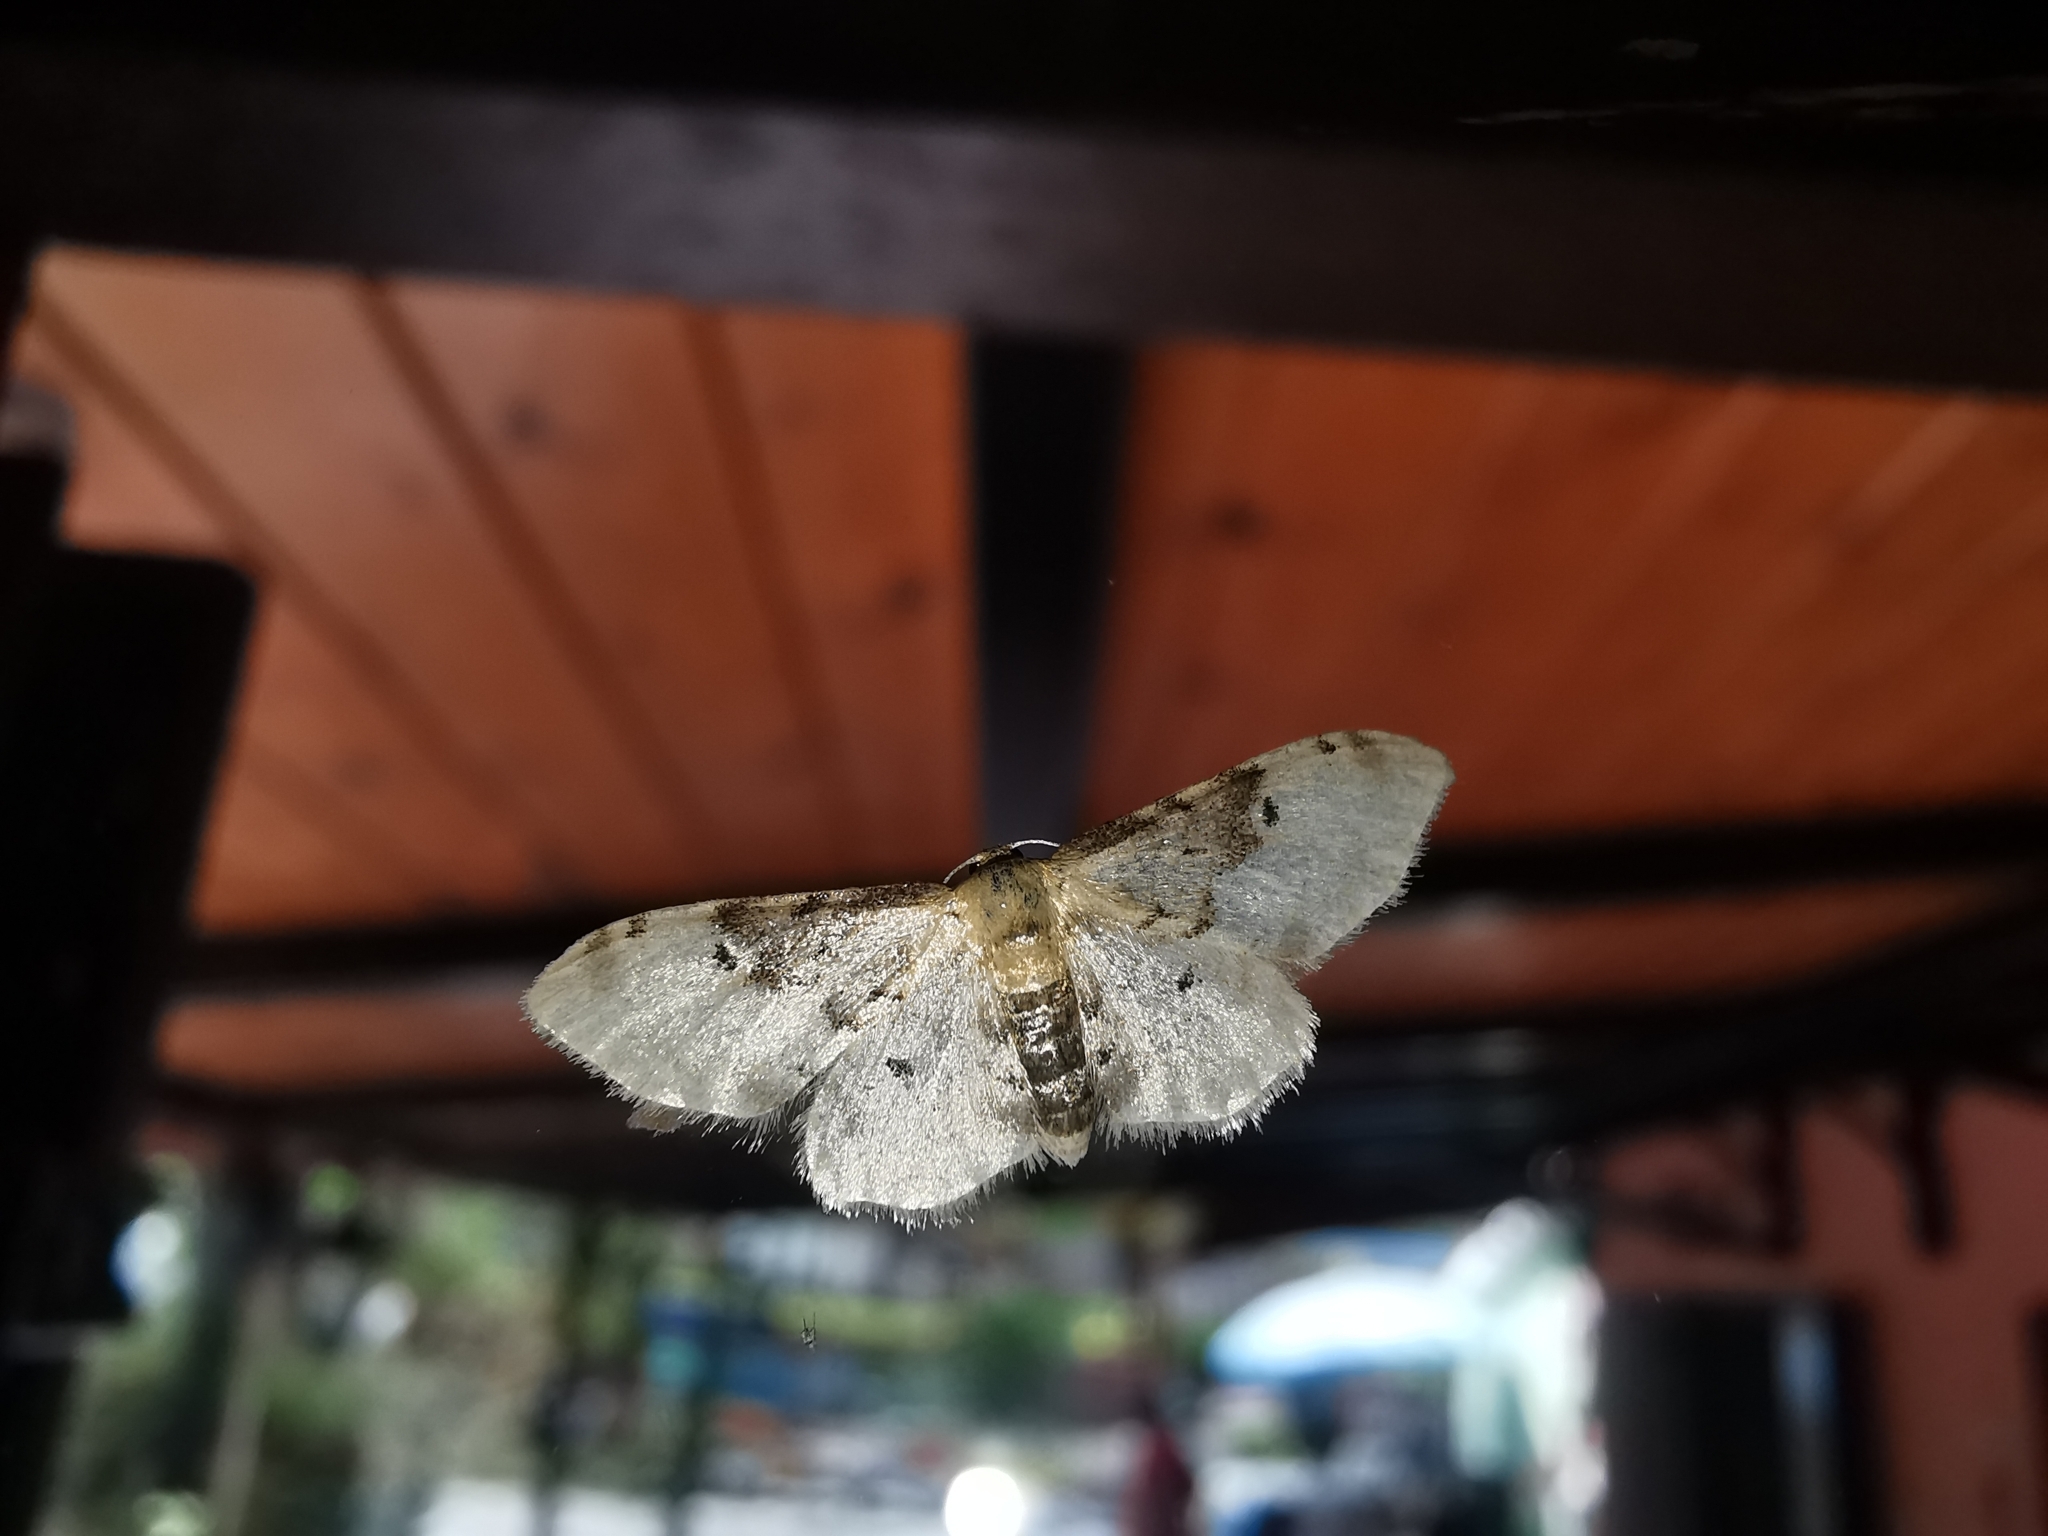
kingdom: Animalia
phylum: Arthropoda
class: Insecta
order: Lepidoptera
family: Geometridae
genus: Idaea
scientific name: Idaea filicata
